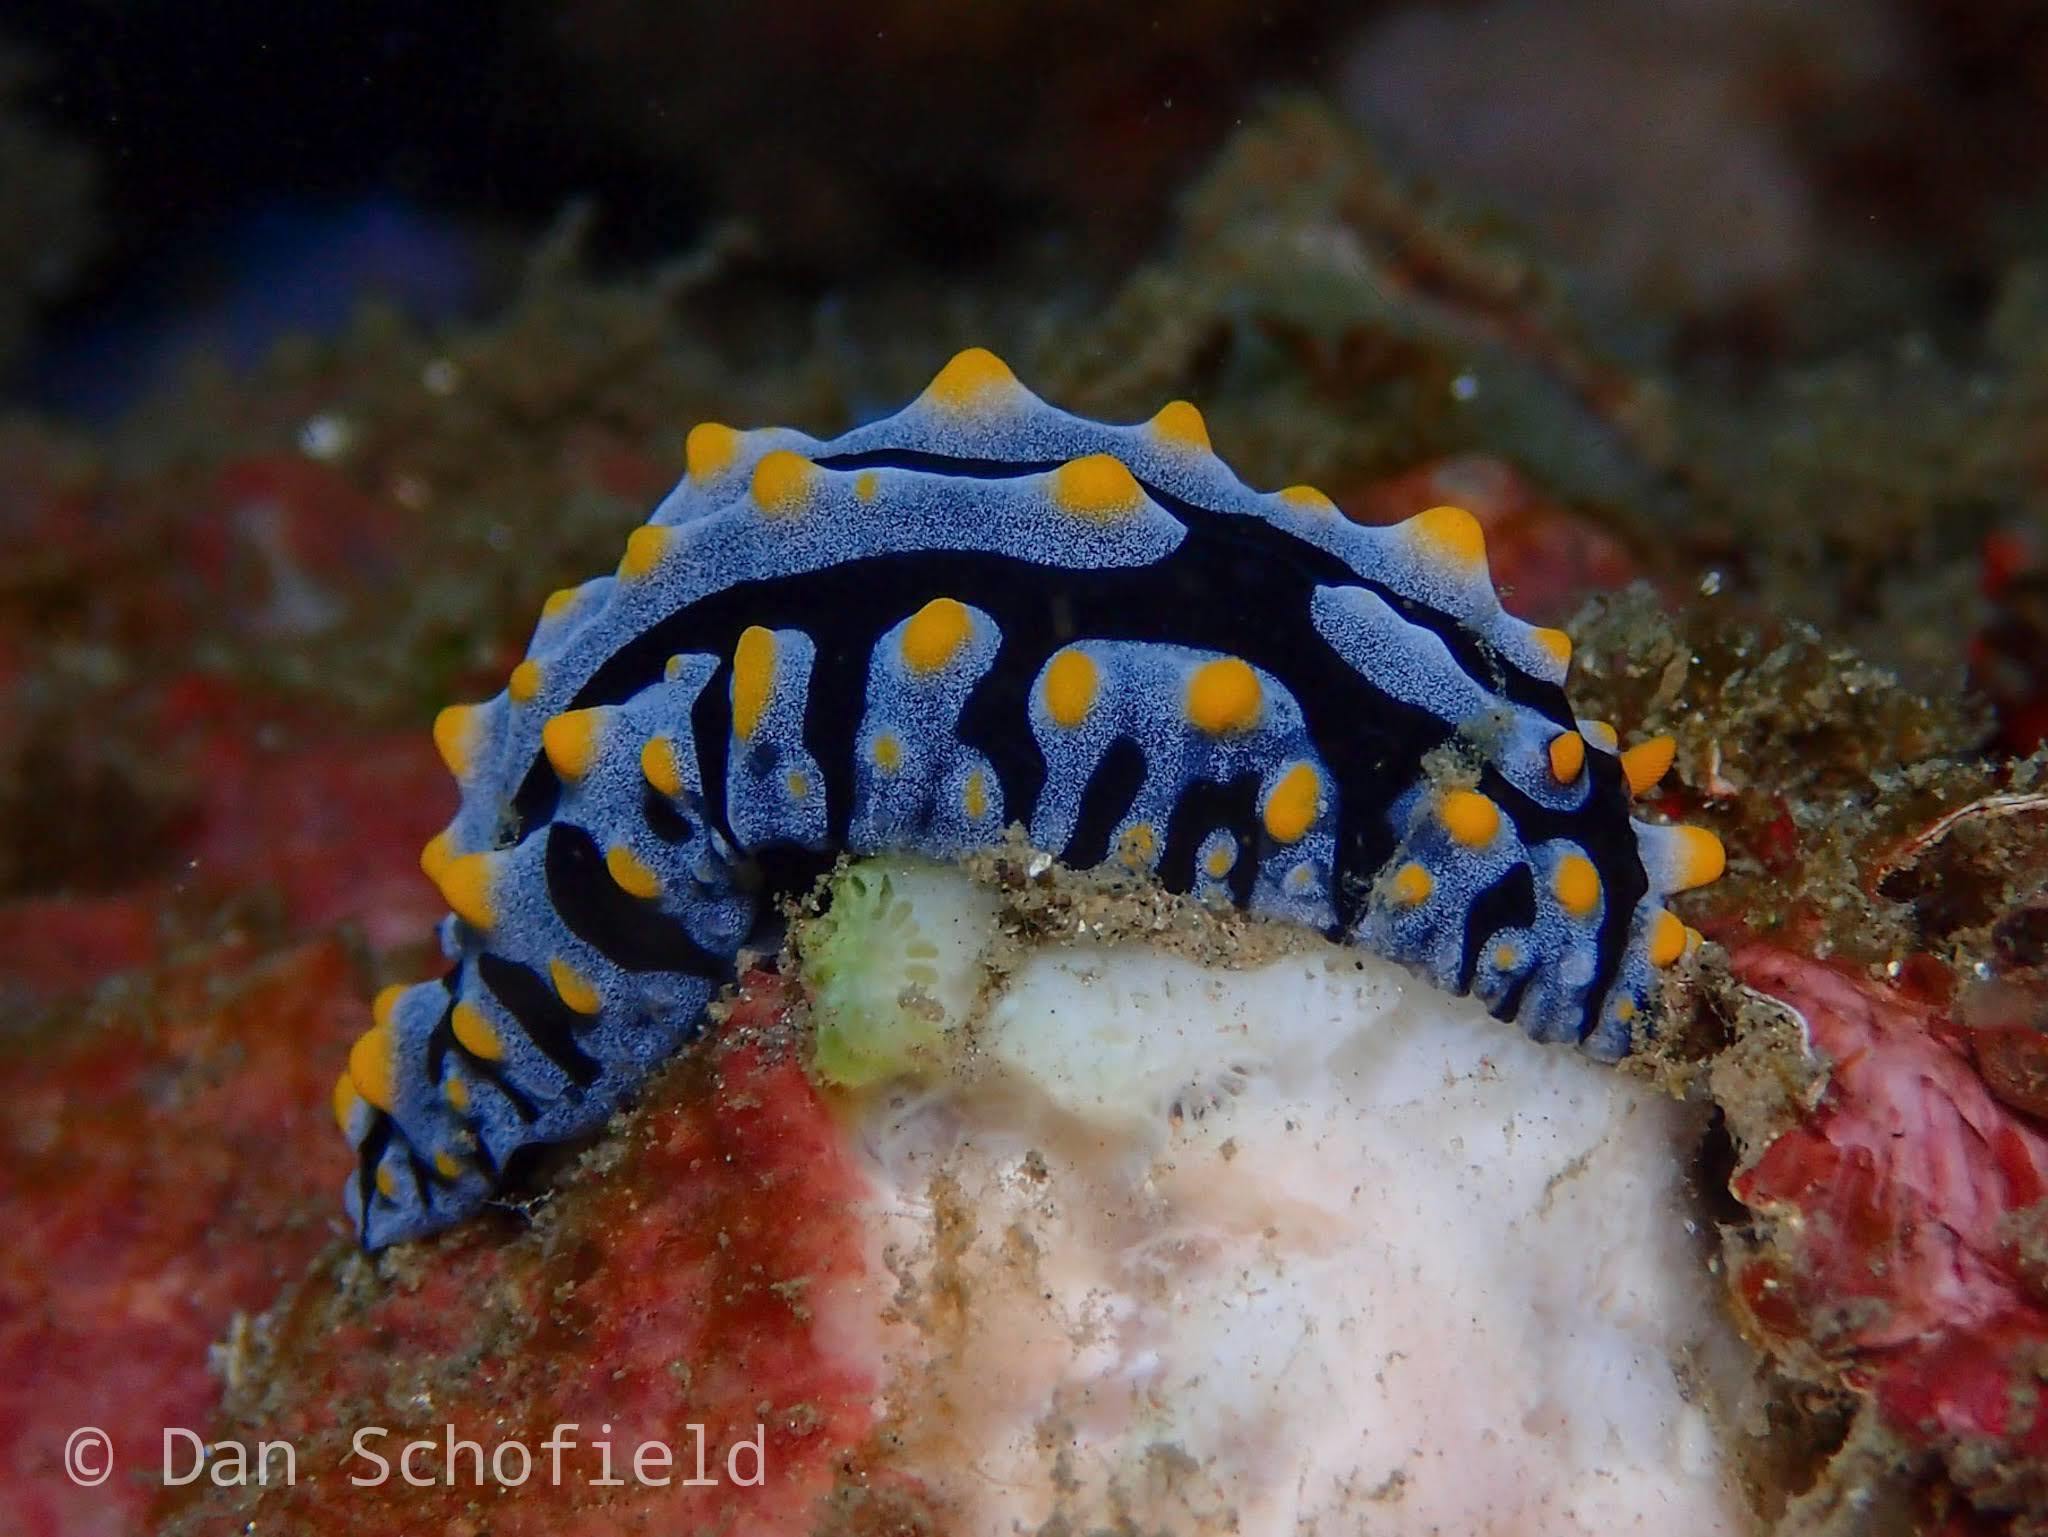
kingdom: Animalia
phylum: Mollusca
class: Gastropoda
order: Nudibranchia
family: Phyllidiidae
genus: Phyllidia
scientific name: Phyllidia varicosa
